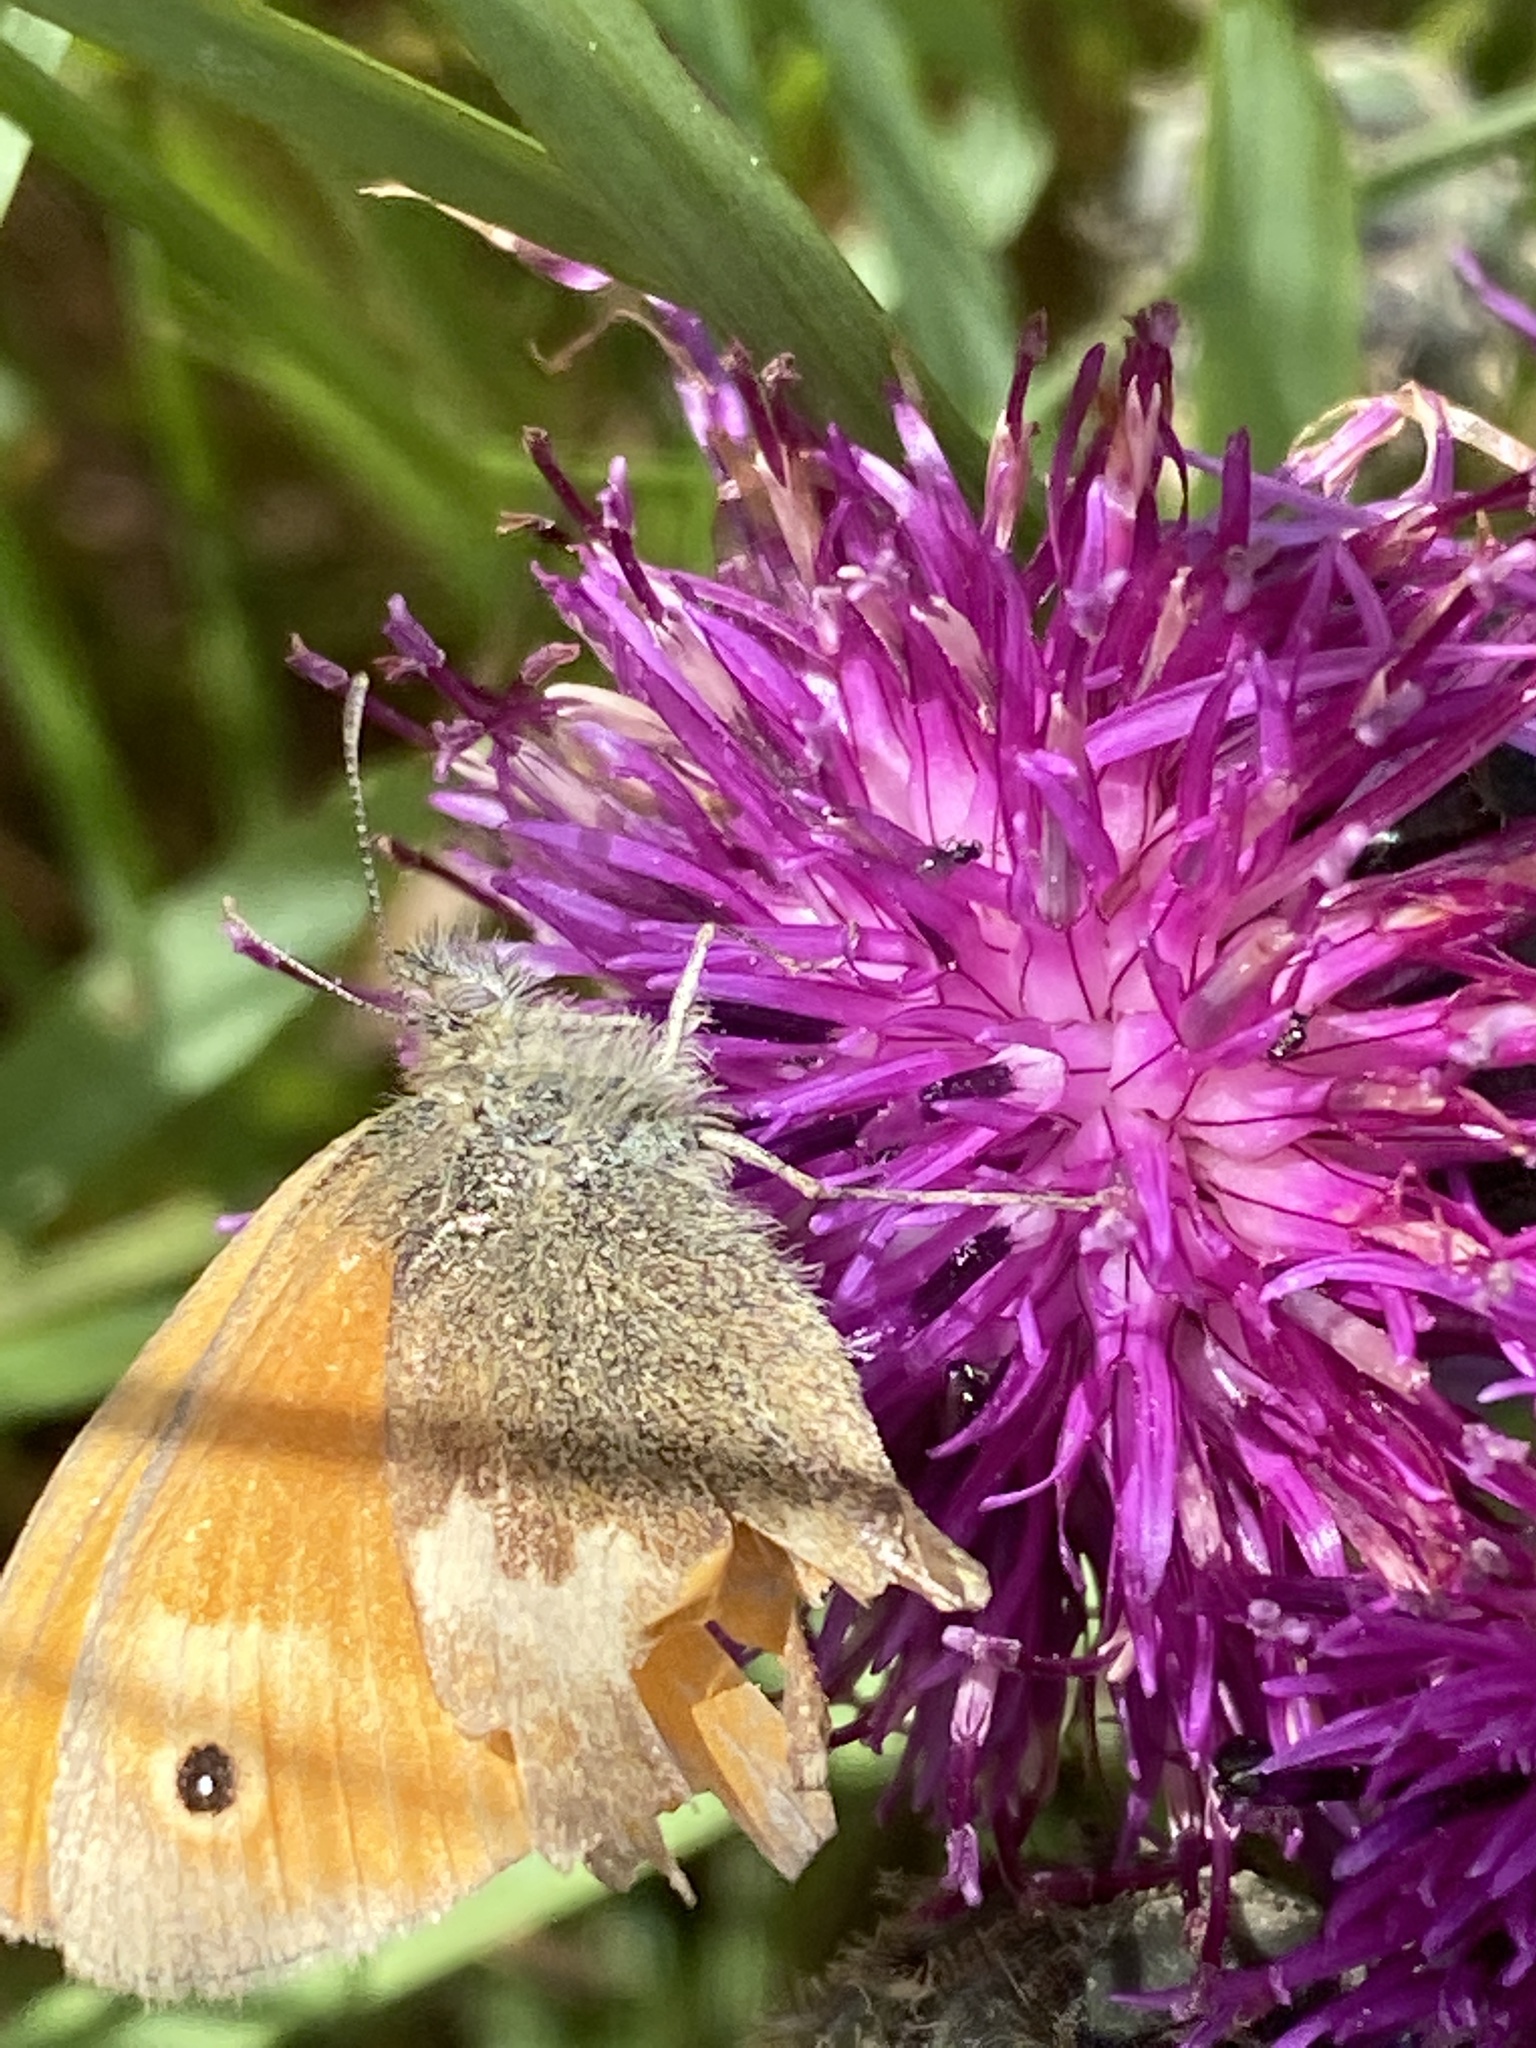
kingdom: Animalia
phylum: Arthropoda
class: Insecta
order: Lepidoptera
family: Nymphalidae
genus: Coenonympha
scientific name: Coenonympha pamphilus
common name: Small heath
